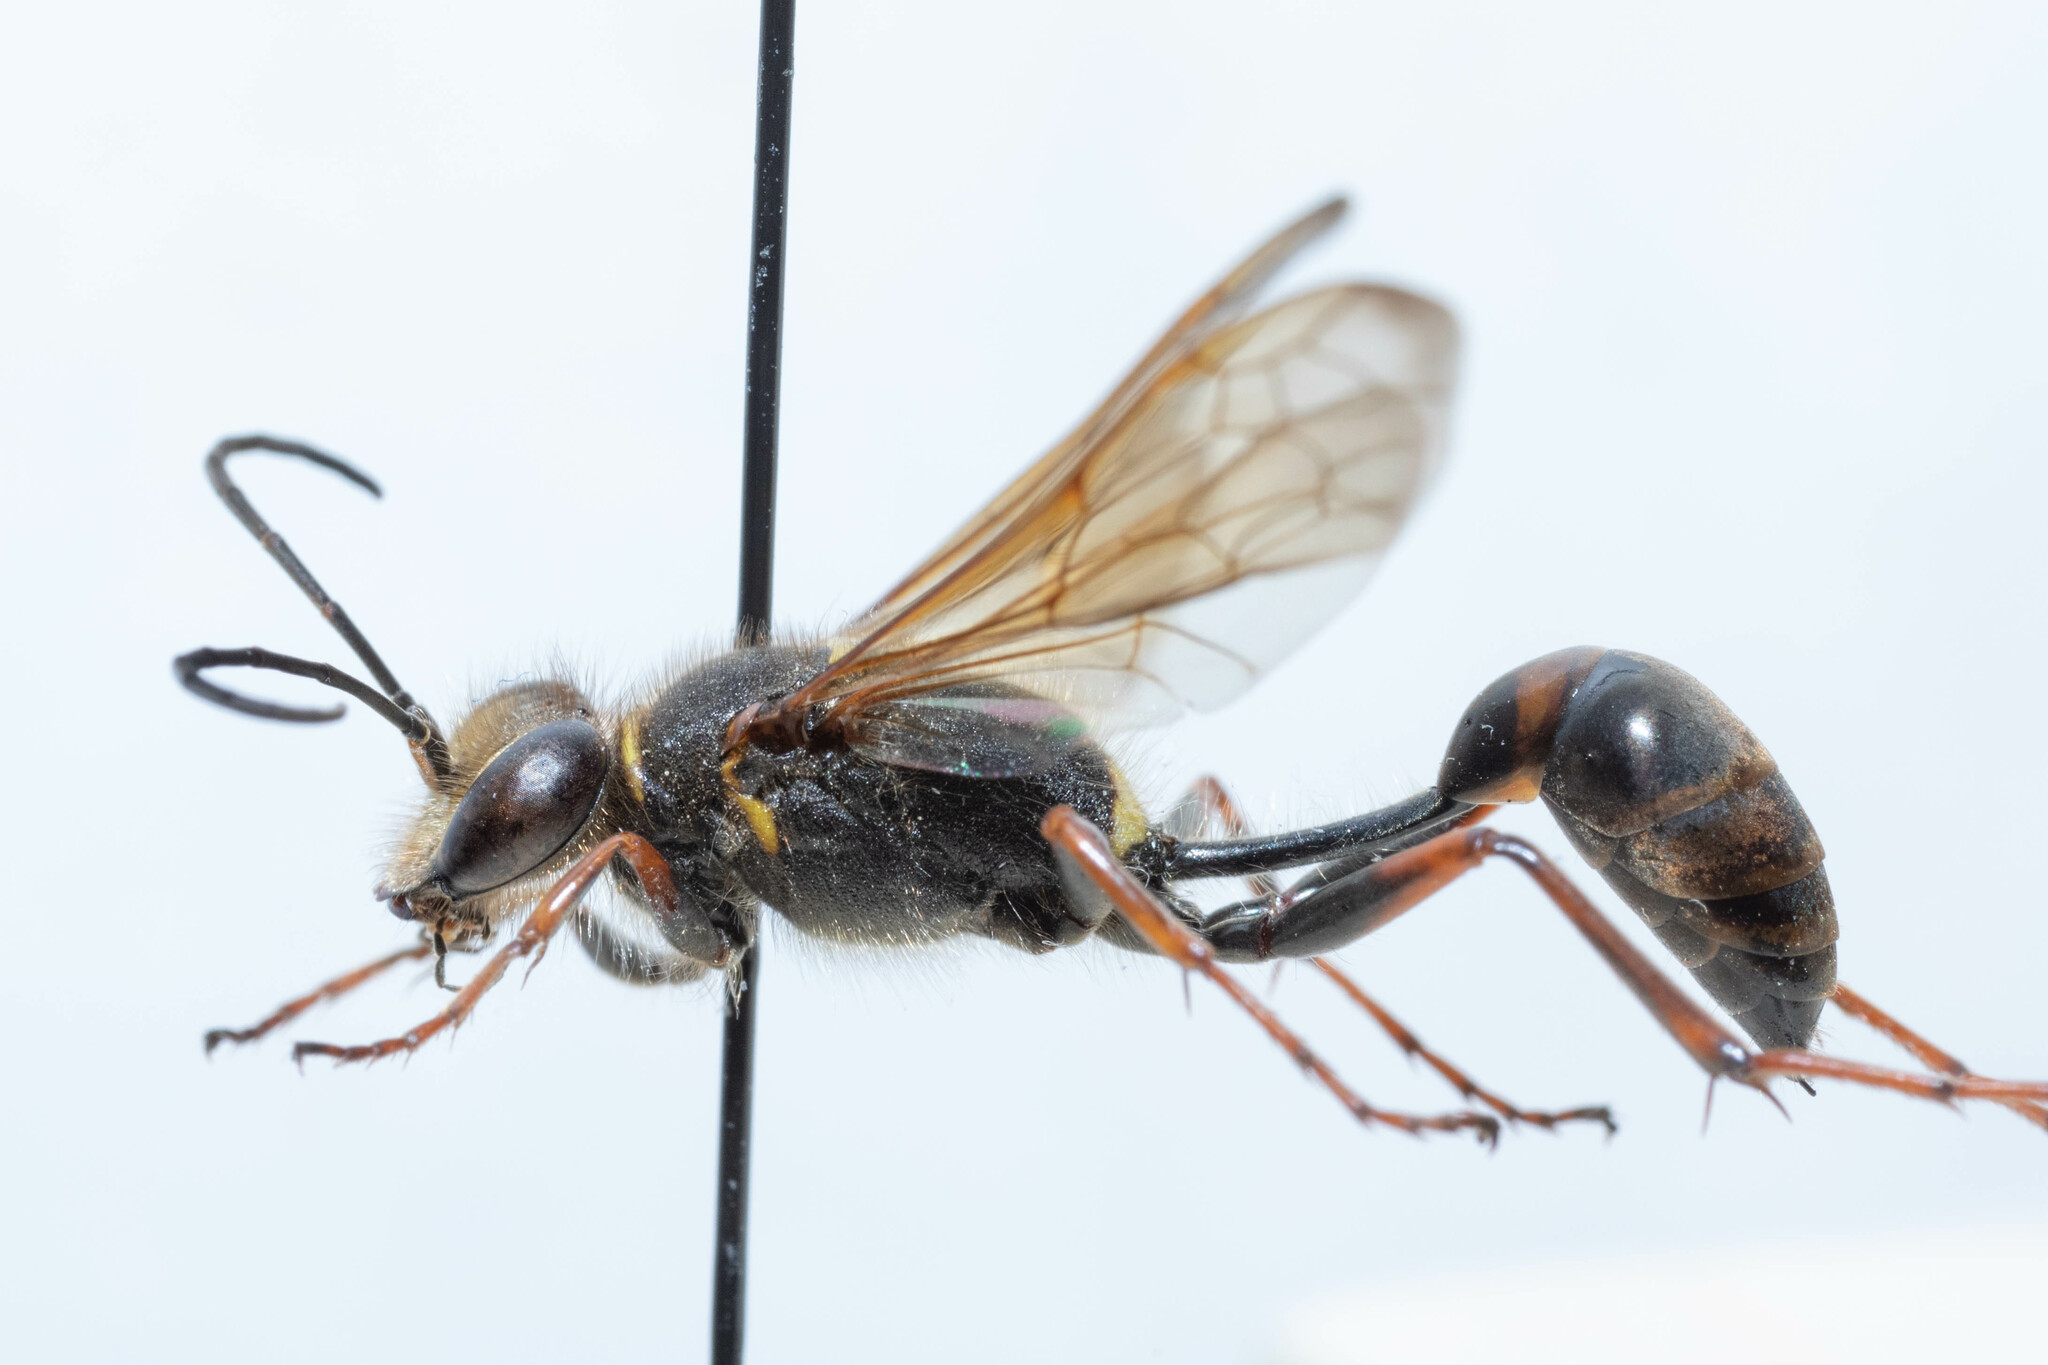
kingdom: Animalia
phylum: Arthropoda
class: Insecta
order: Hymenoptera
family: Sphecidae
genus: Sceliphron
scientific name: Sceliphron curvatum
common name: Pèlopèe
